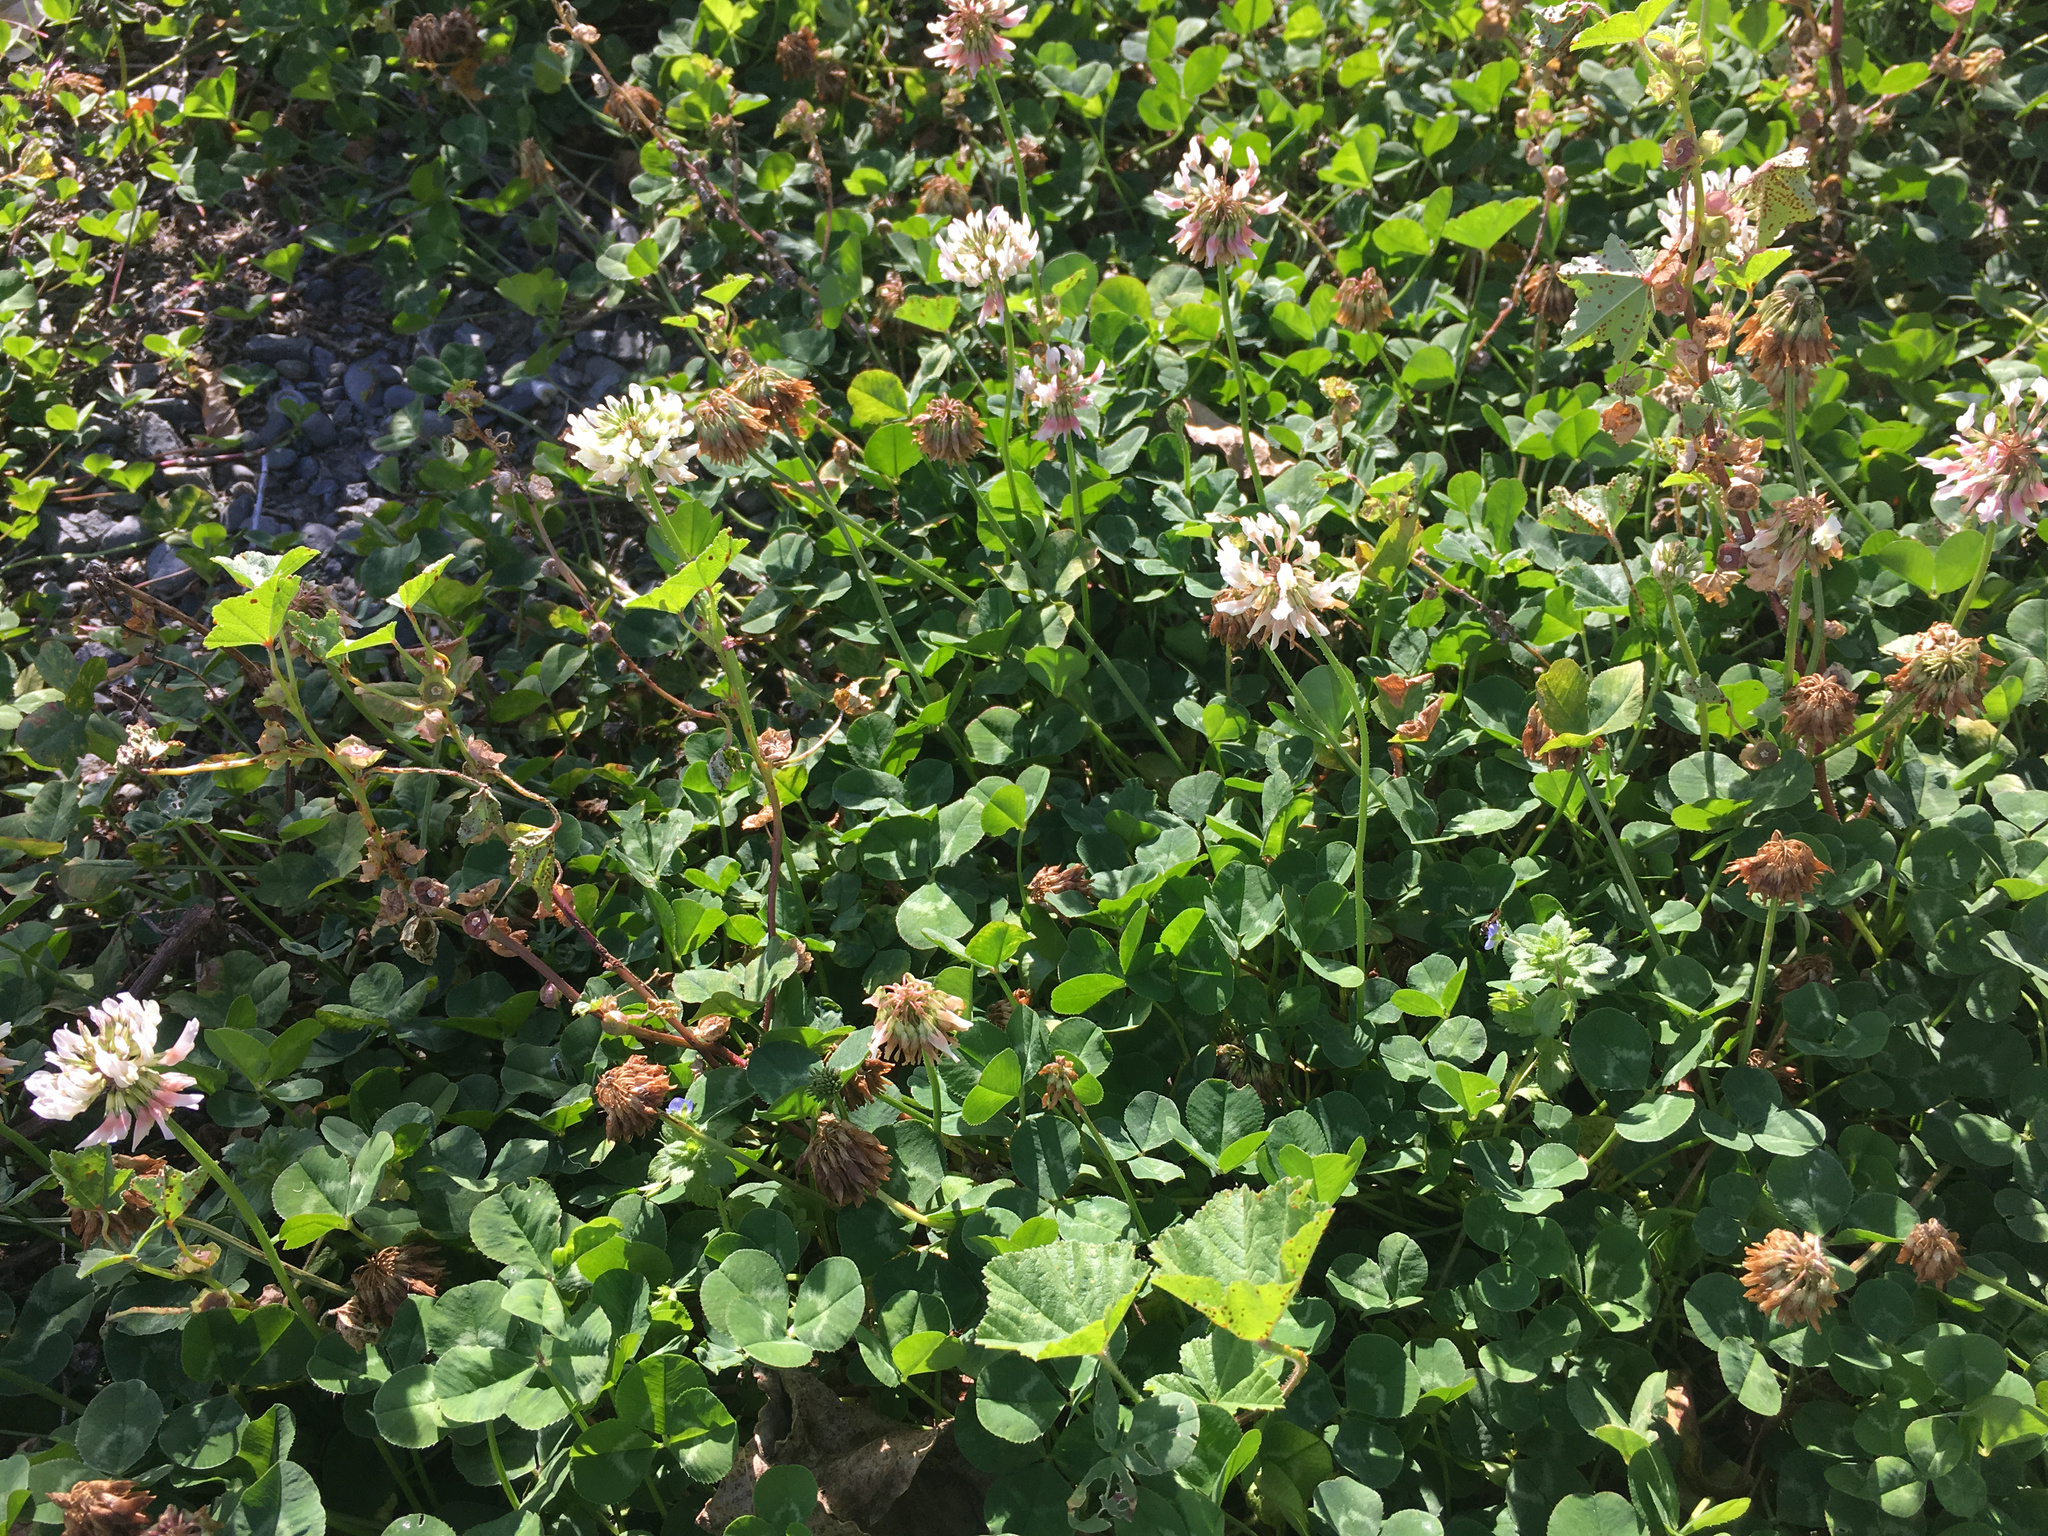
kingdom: Plantae
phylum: Tracheophyta
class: Magnoliopsida
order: Fabales
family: Fabaceae
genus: Trifolium
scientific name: Trifolium repens
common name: White clover
